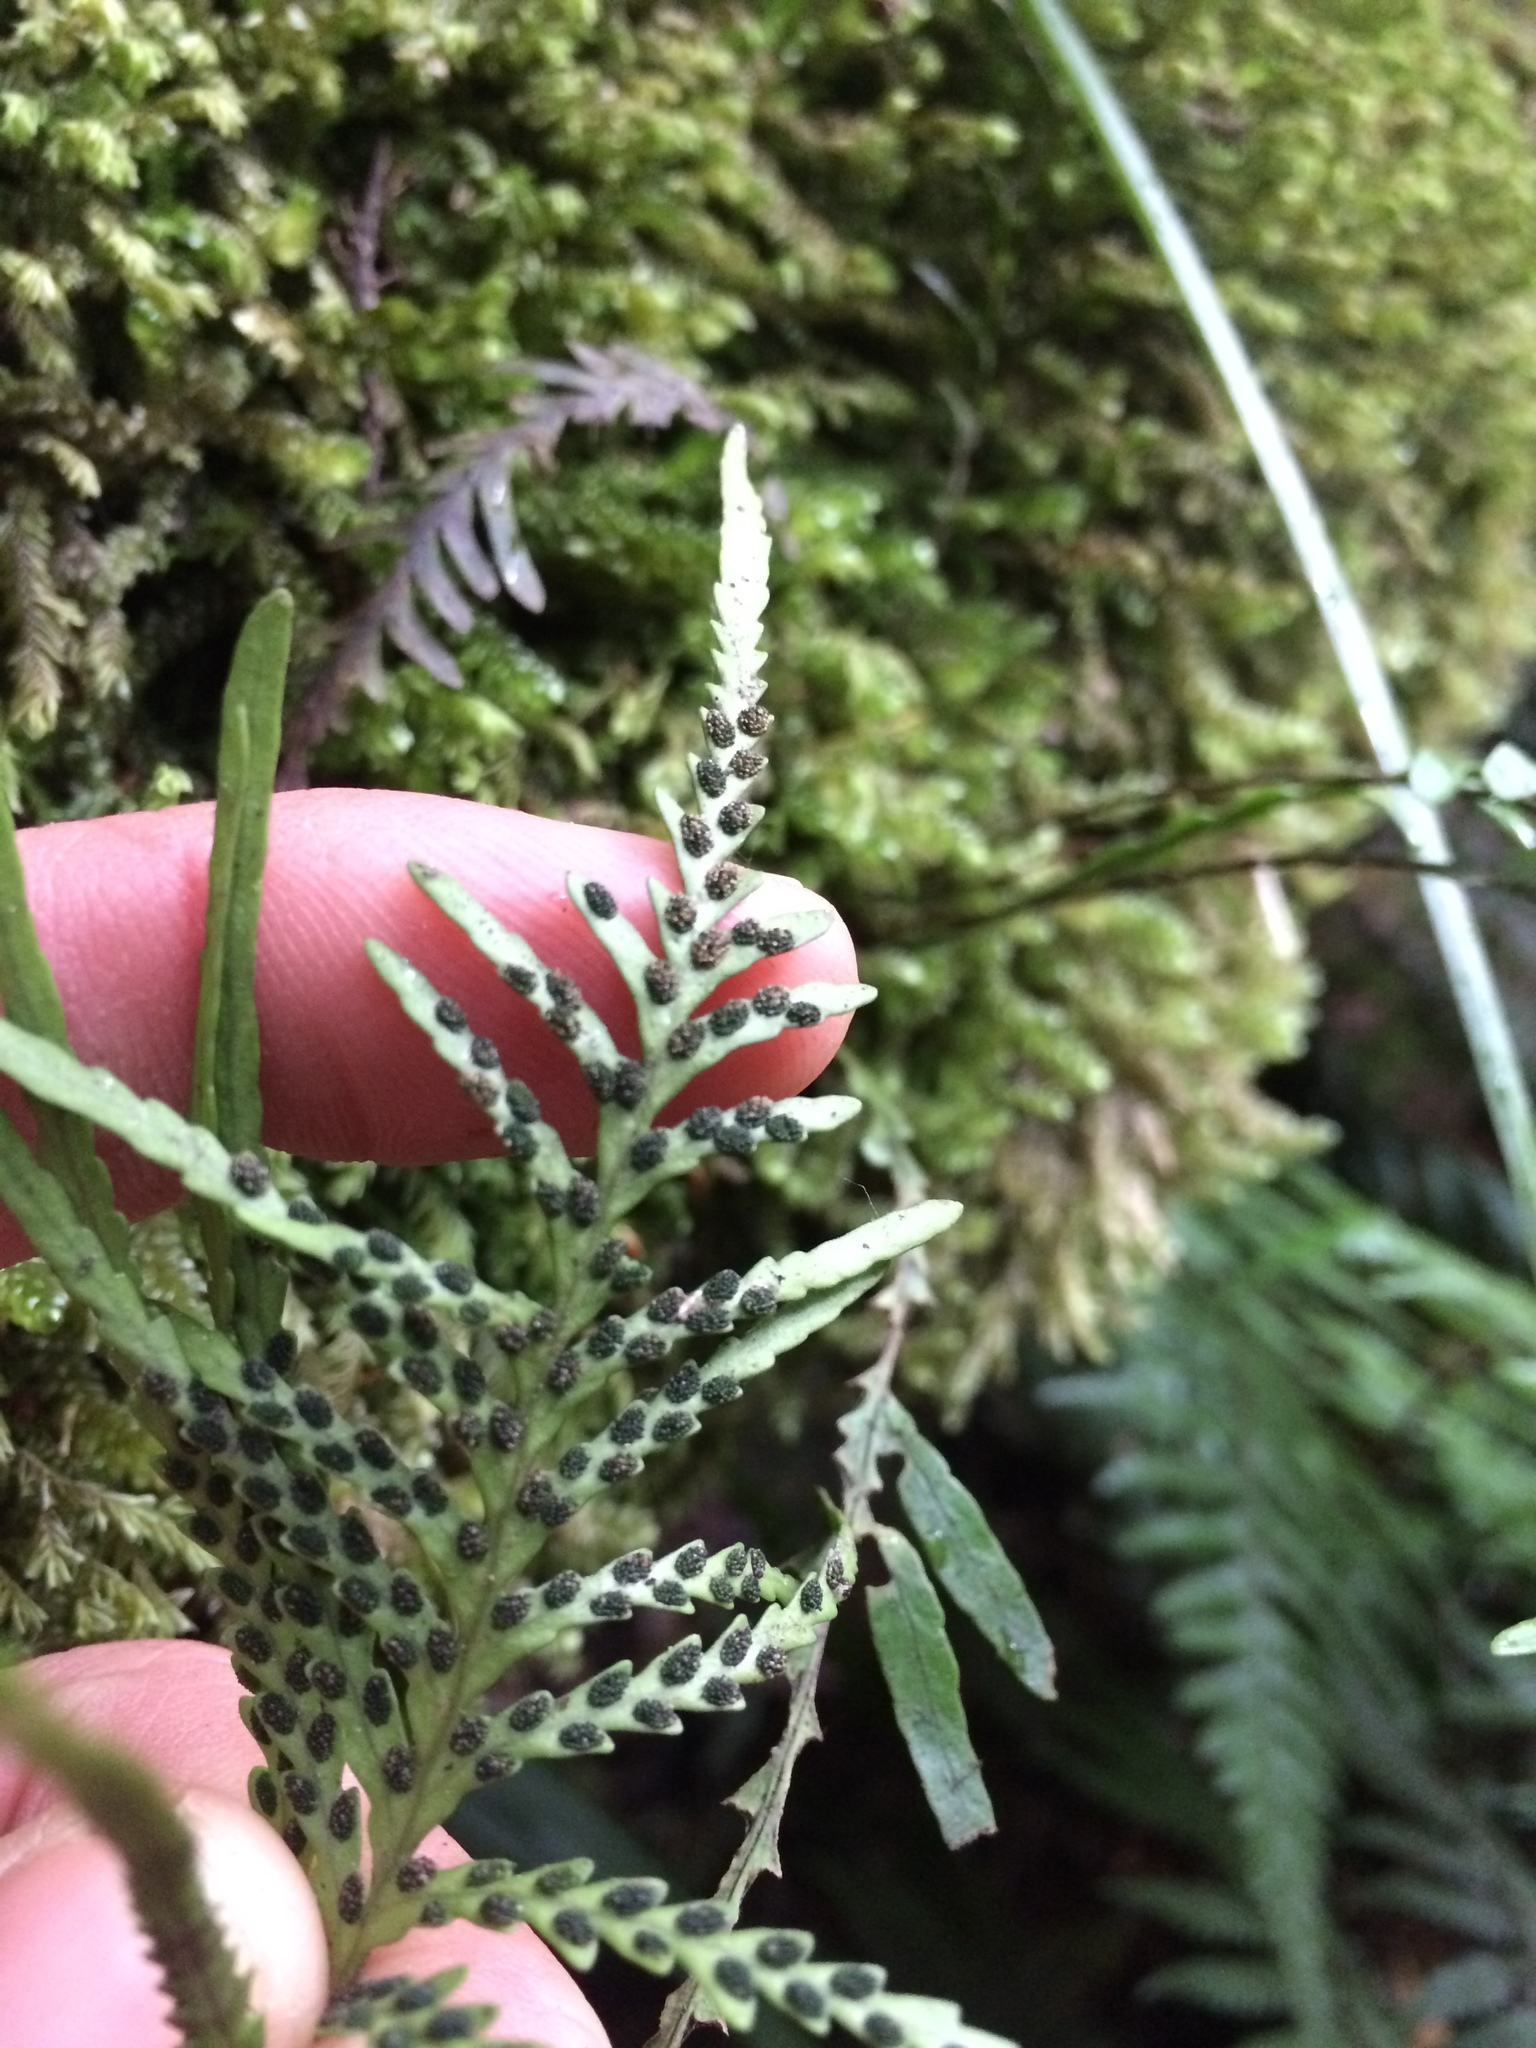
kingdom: Plantae
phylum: Tracheophyta
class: Polypodiopsida
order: Polypodiales
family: Polypodiaceae
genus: Notogrammitis
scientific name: Notogrammitis heterophylla
